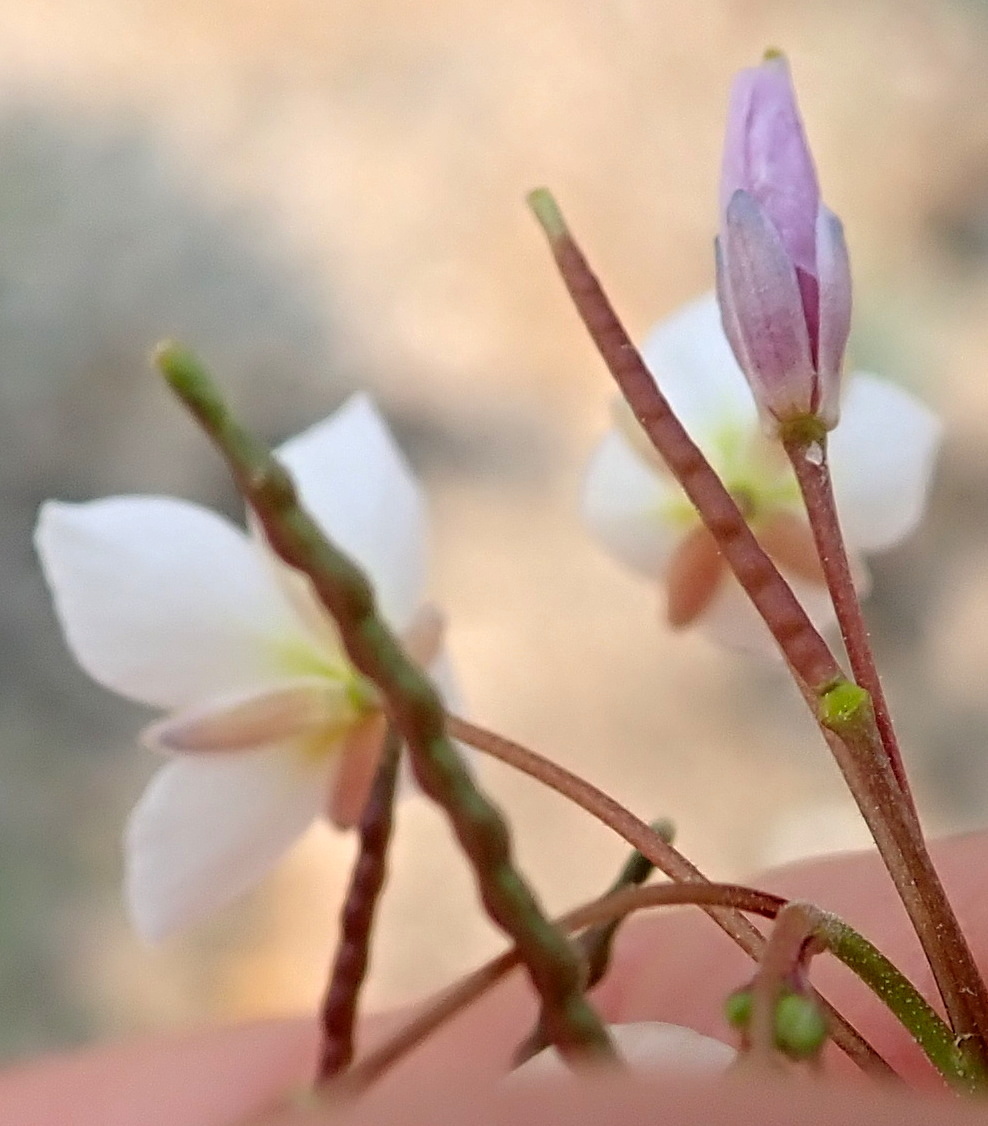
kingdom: Plantae
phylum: Tracheophyta
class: Magnoliopsida
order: Brassicales
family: Brassicaceae
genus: Heliophila
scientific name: Heliophila variabilis
